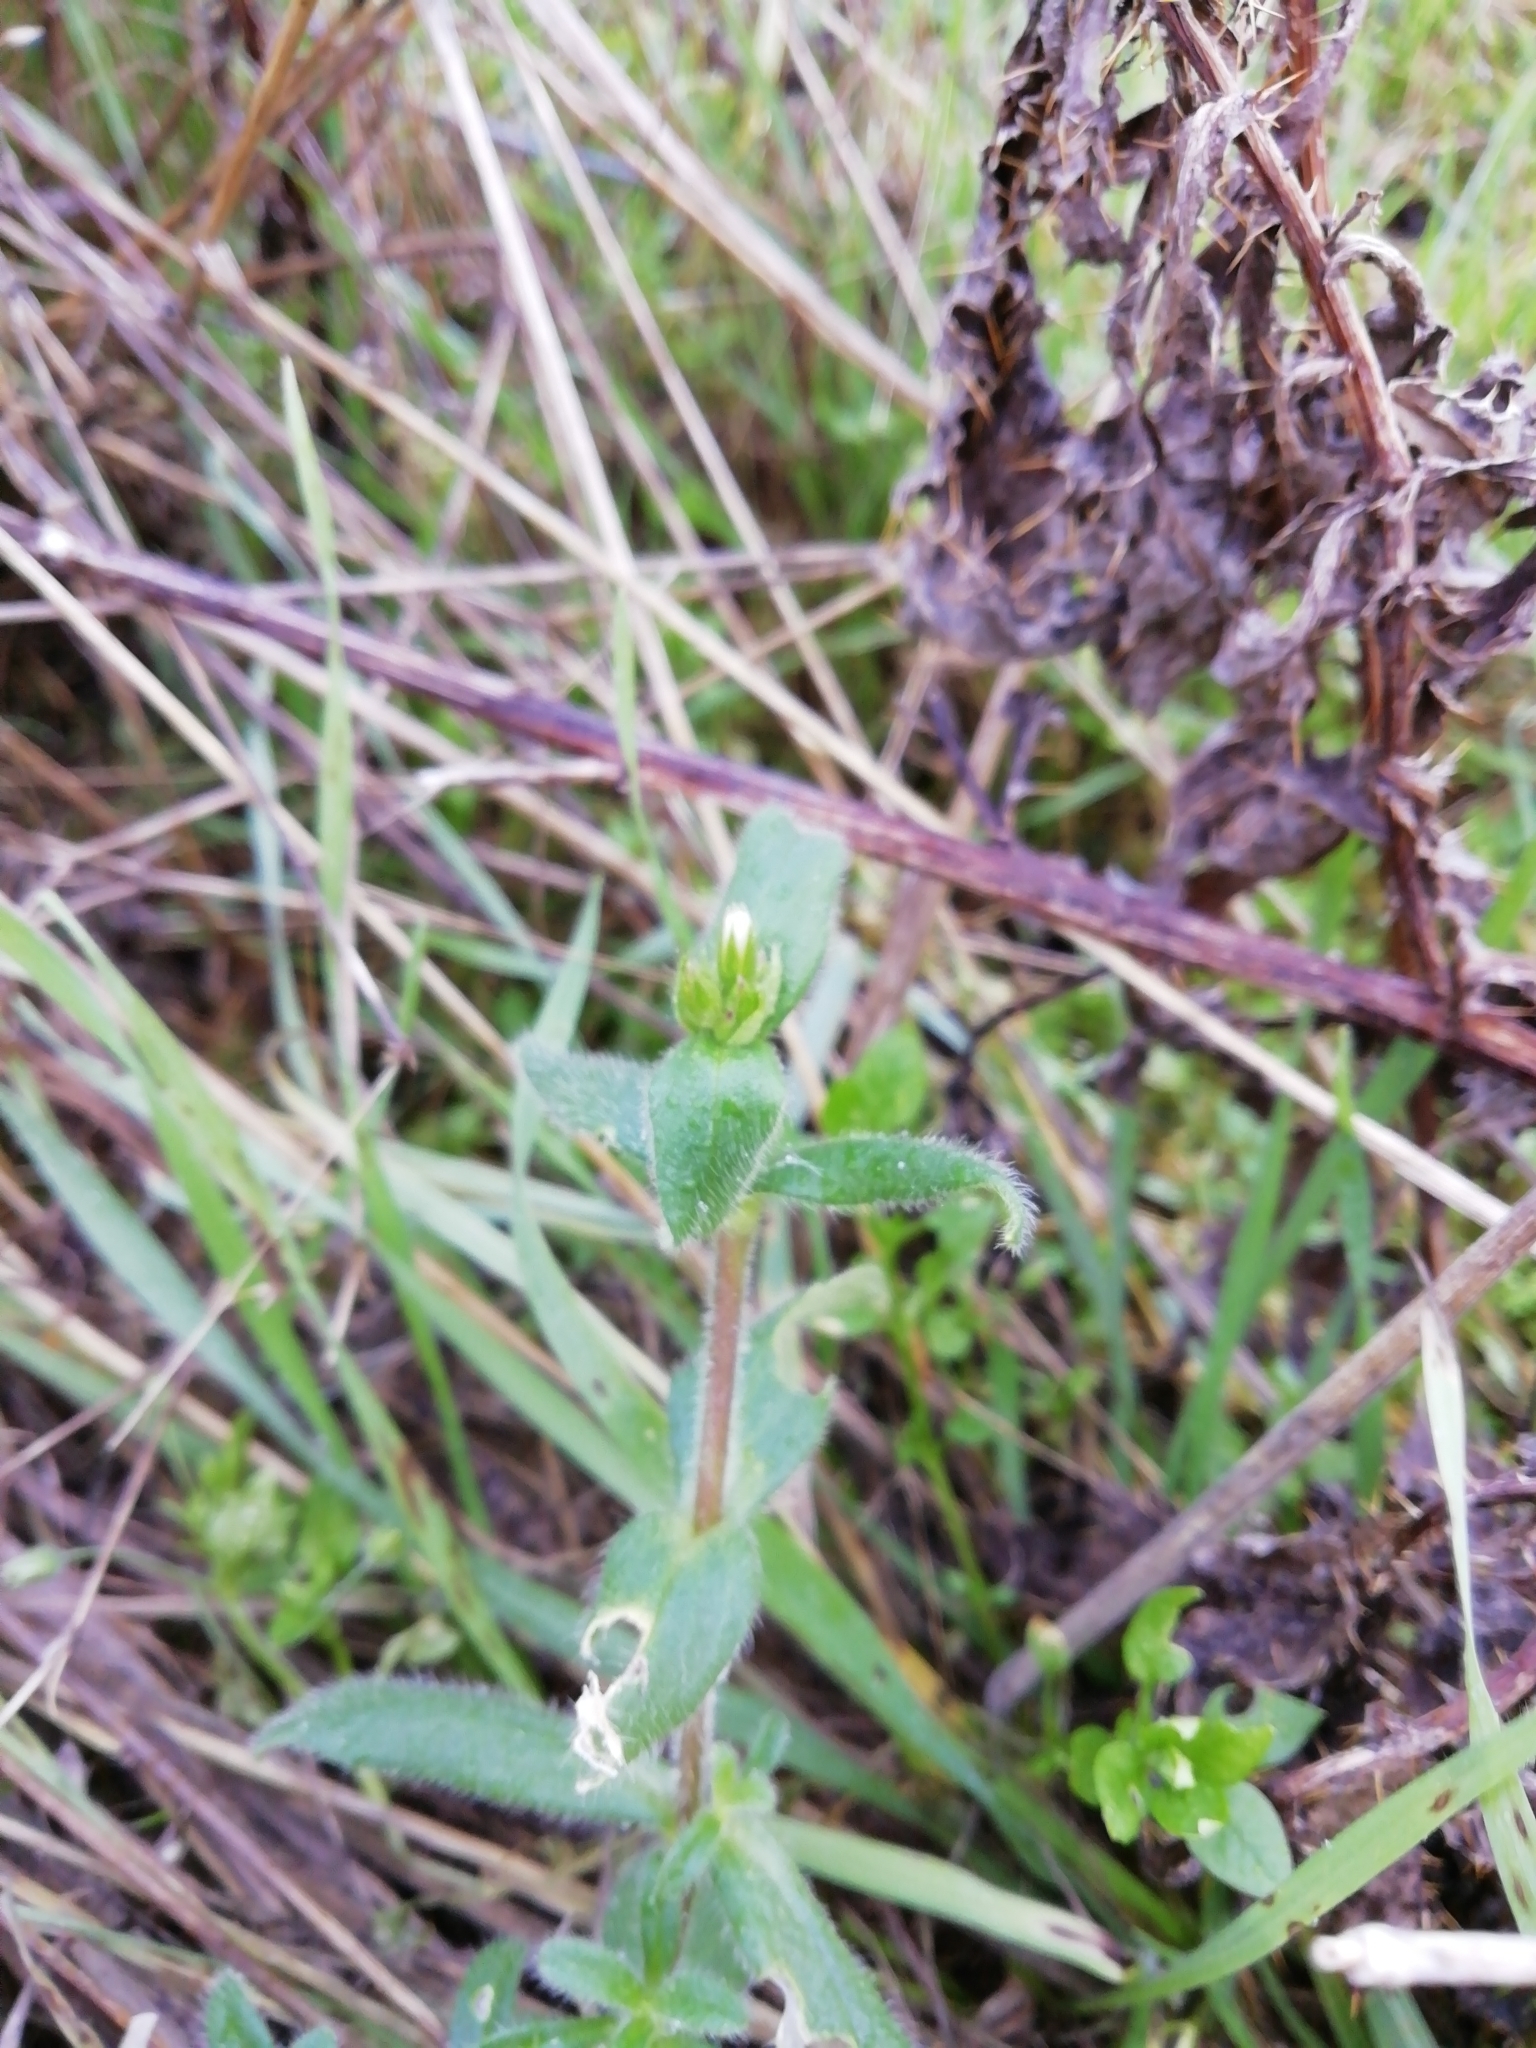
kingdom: Plantae
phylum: Tracheophyta
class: Magnoliopsida
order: Caryophyllales
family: Caryophyllaceae
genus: Cerastium
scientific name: Cerastium fontanum
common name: Common mouse-ear
